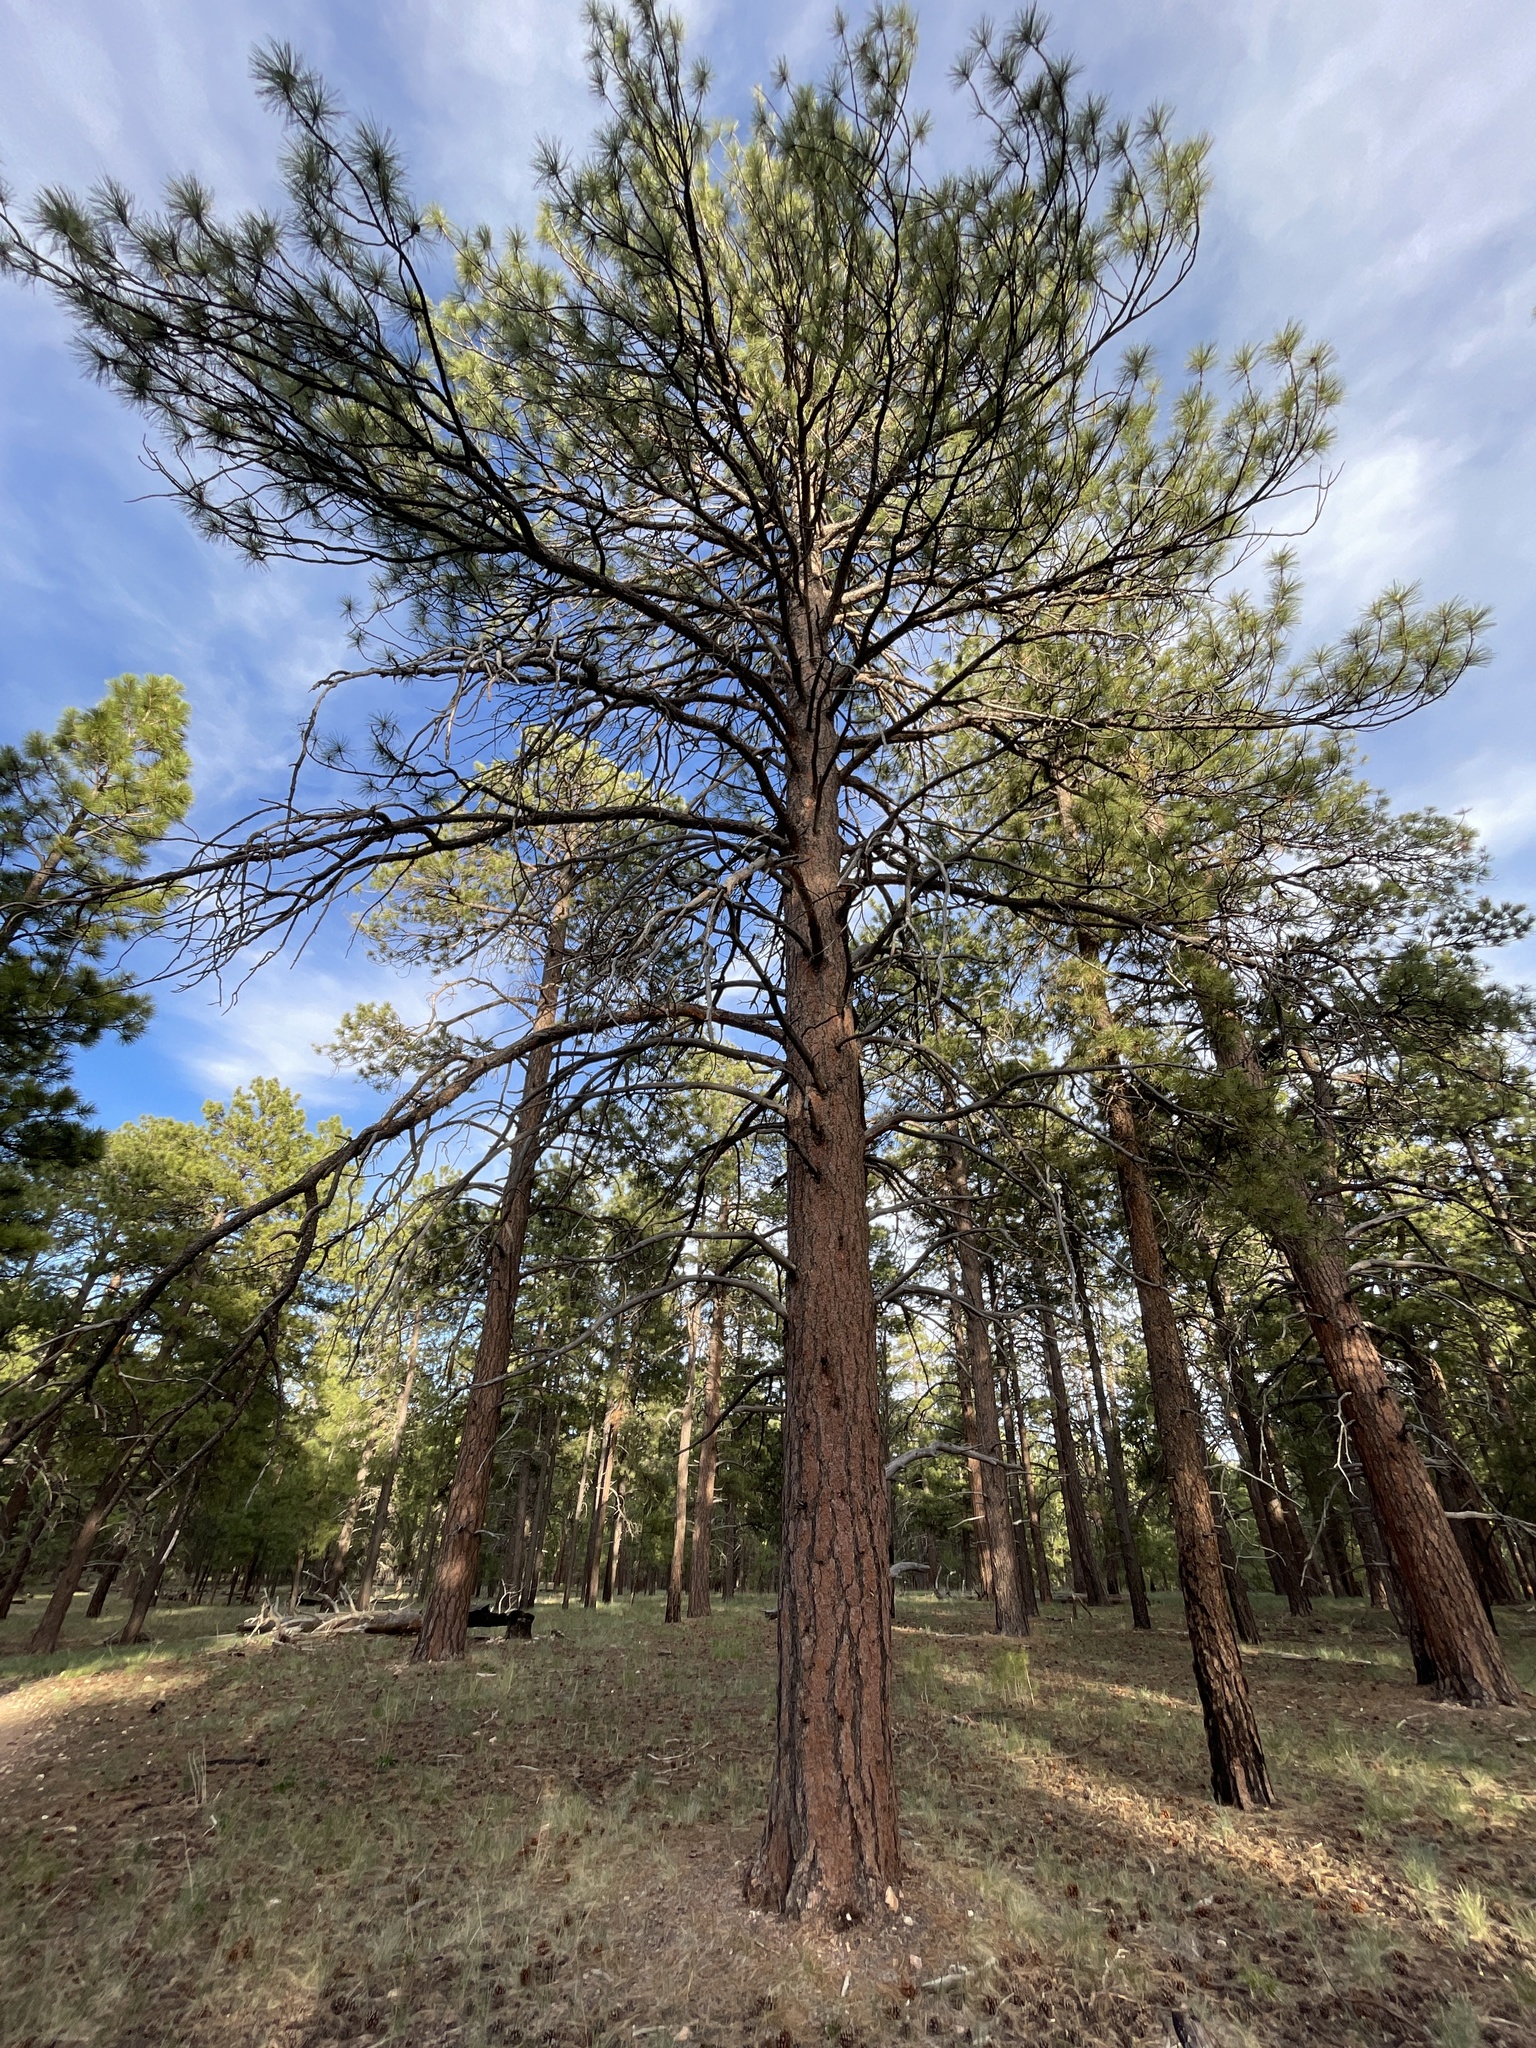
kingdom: Plantae
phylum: Tracheophyta
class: Pinopsida
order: Pinales
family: Pinaceae
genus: Pinus
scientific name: Pinus ponderosa
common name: Western yellow-pine
